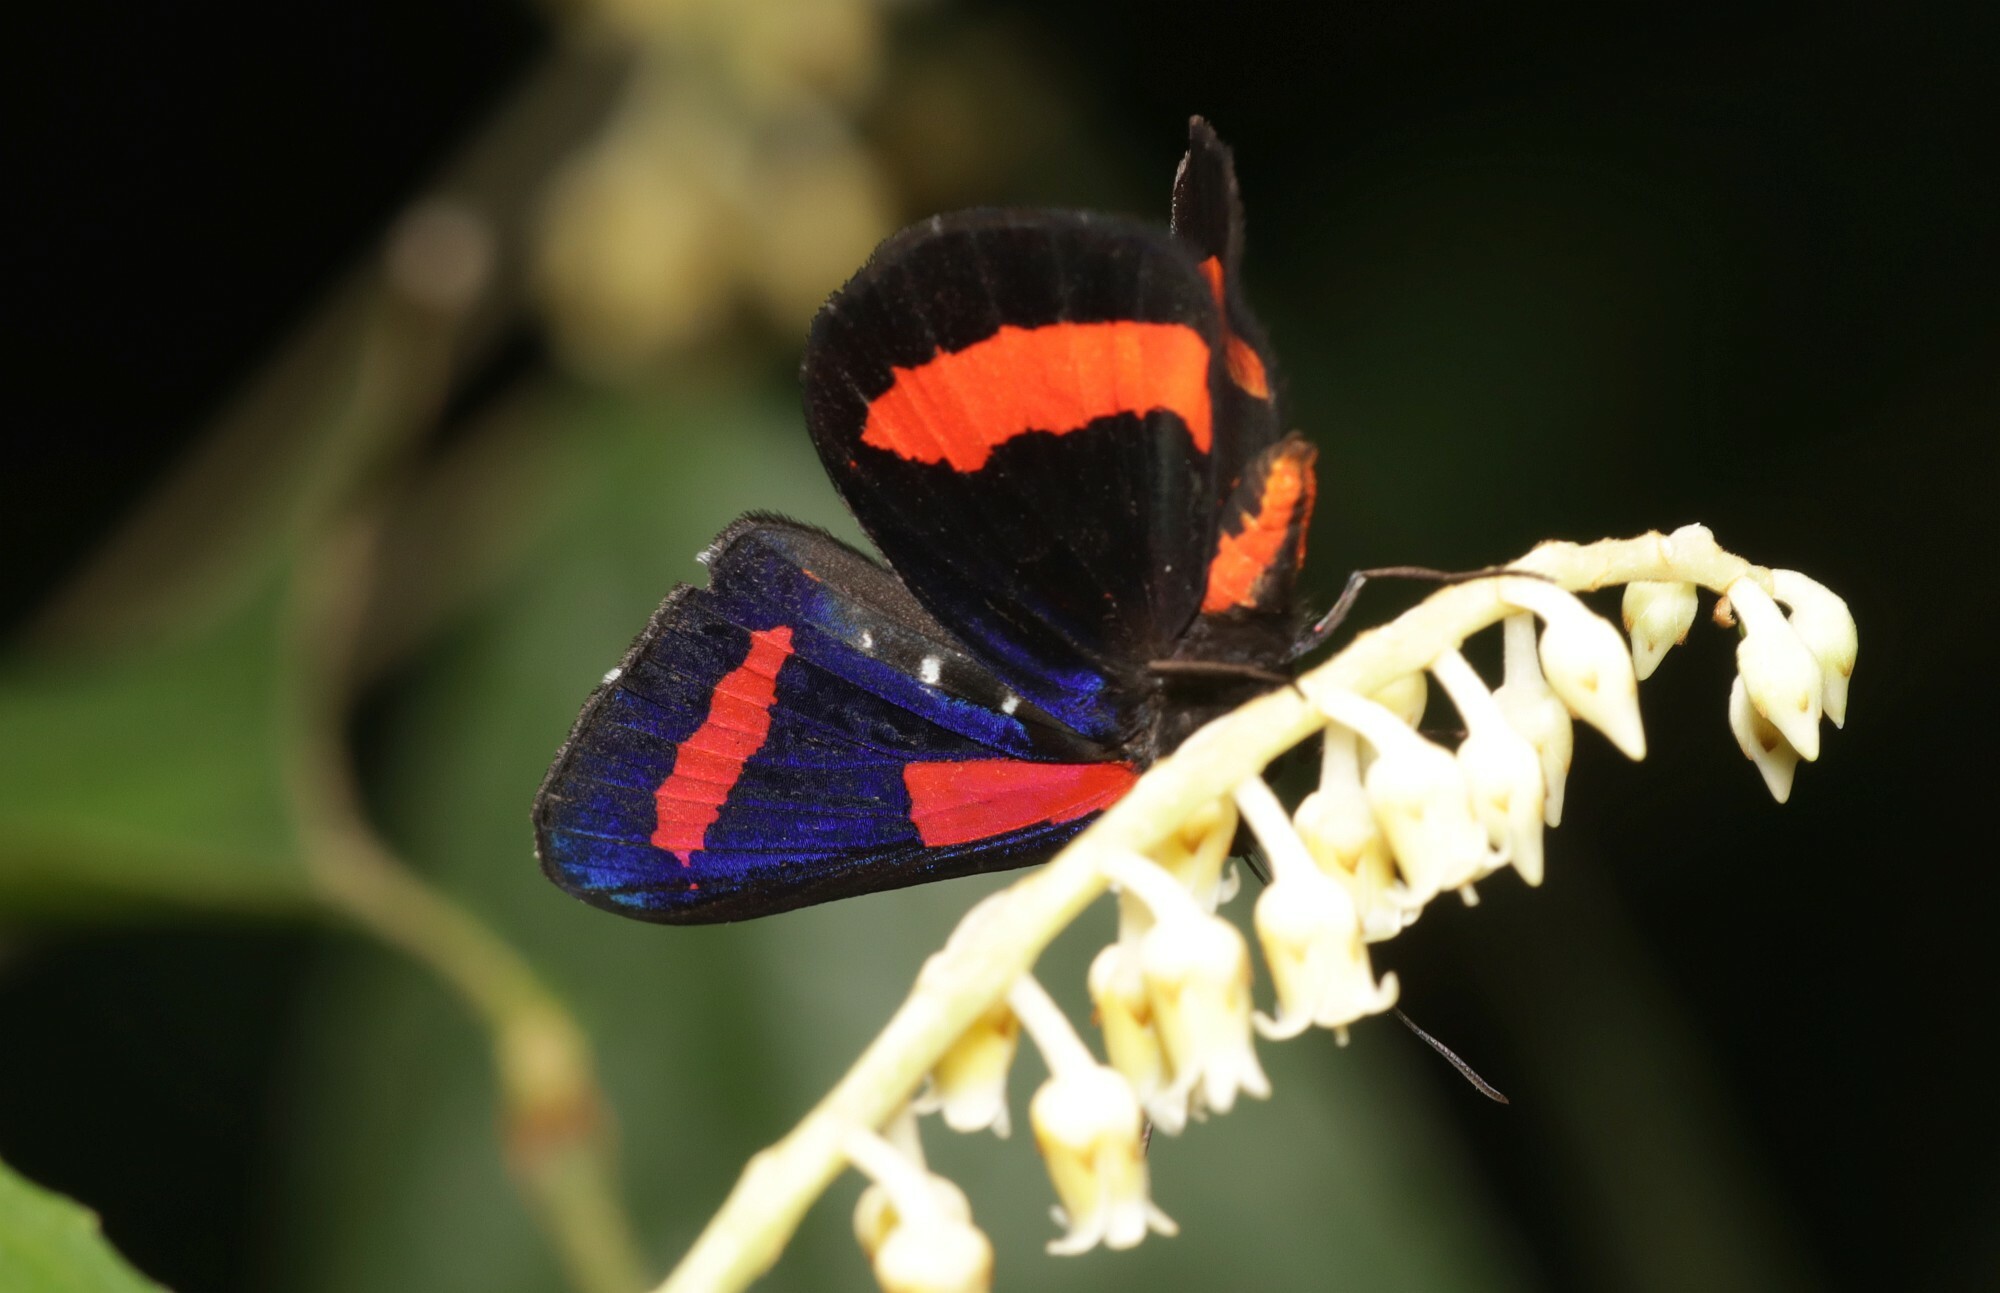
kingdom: Animalia
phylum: Arthropoda
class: Insecta
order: Lepidoptera
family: Riodinidae
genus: Amarynthis
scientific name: Amarynthis meneria
